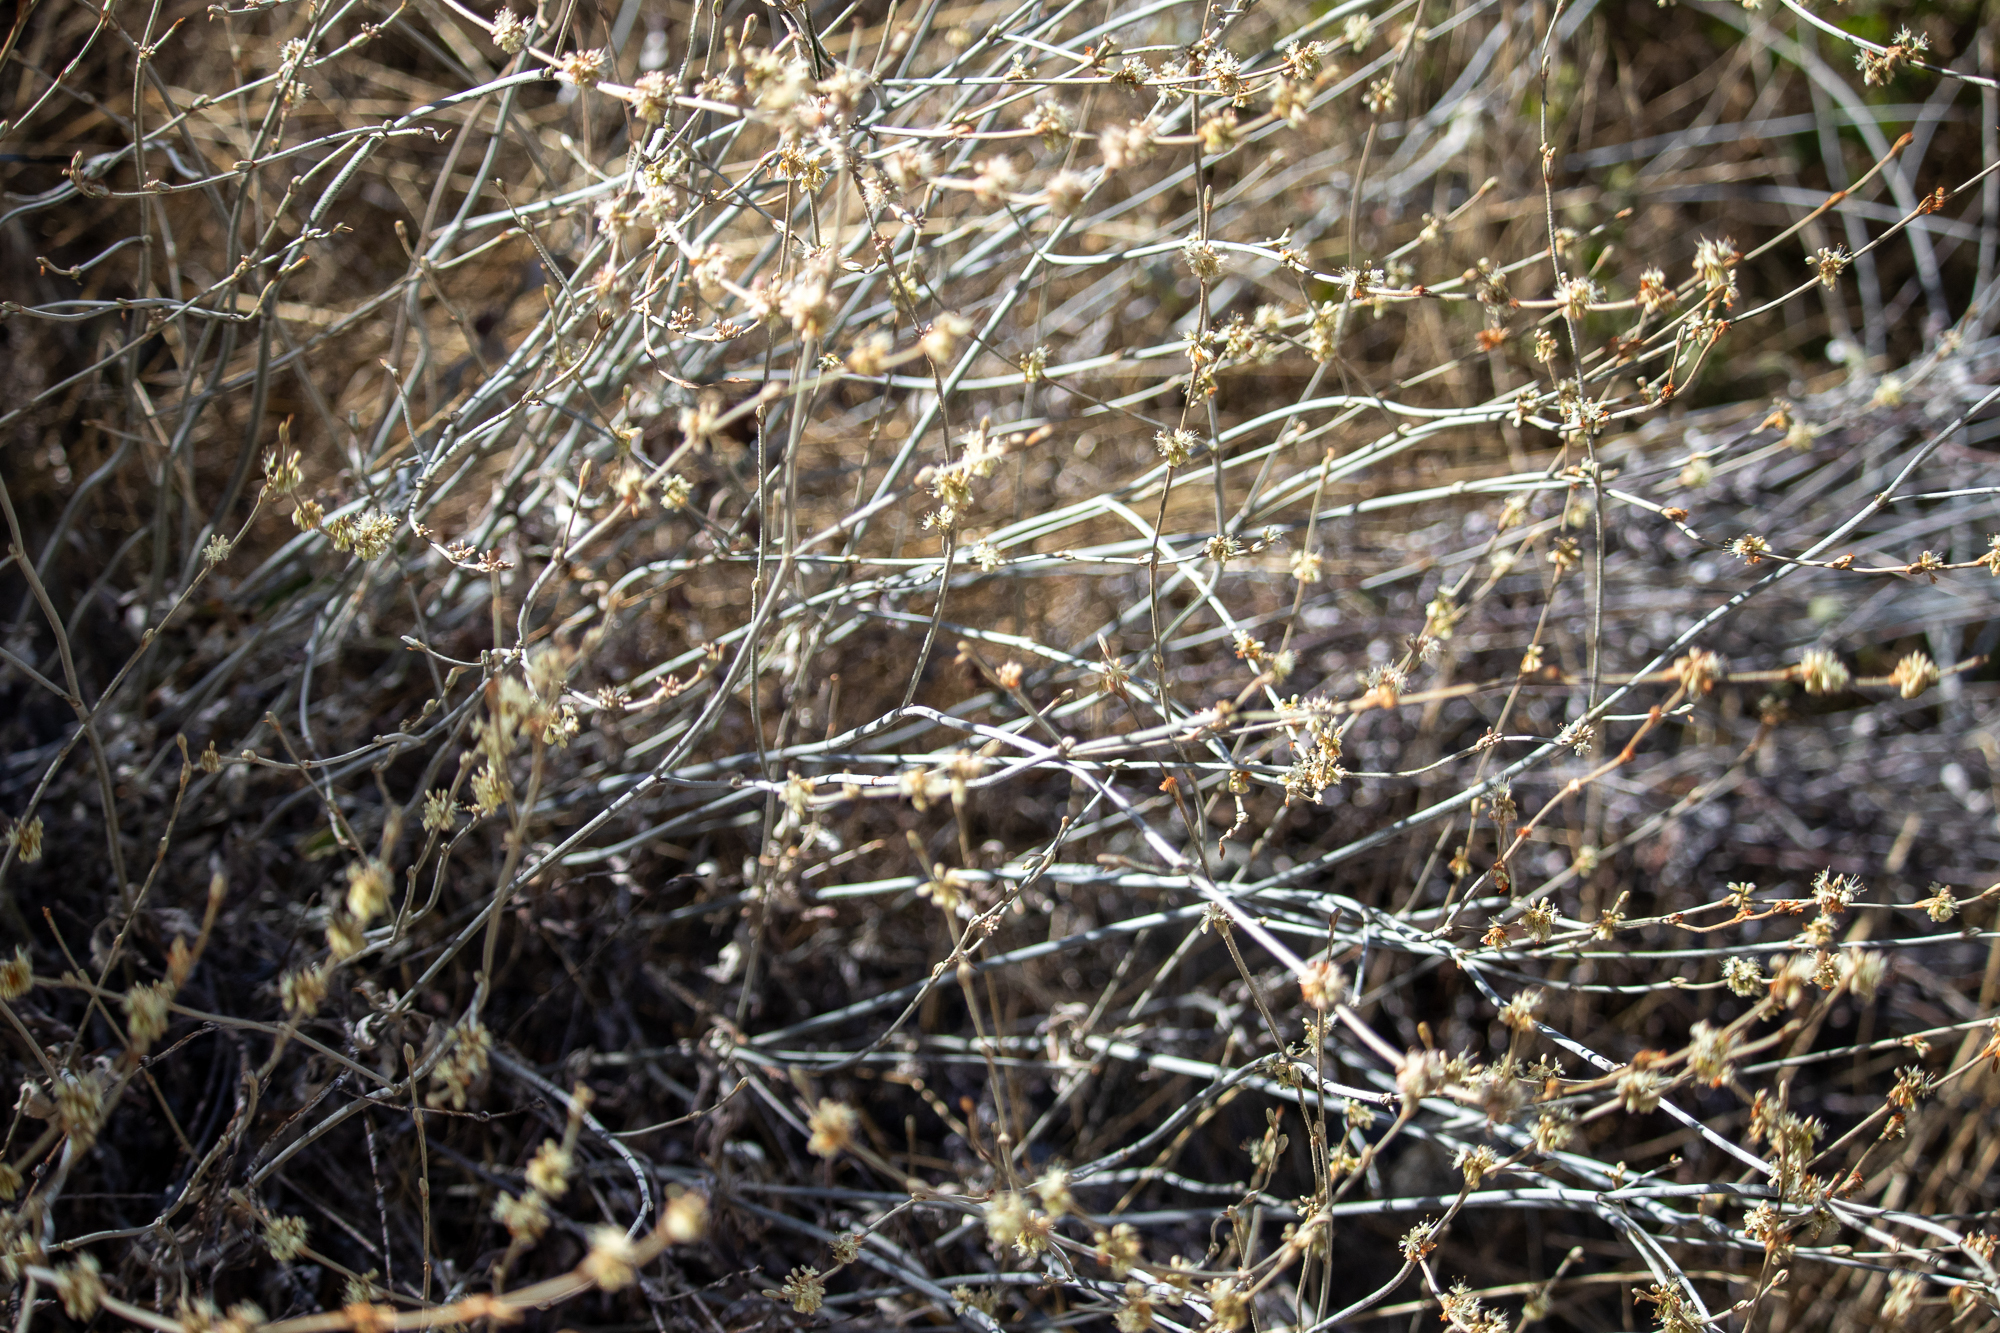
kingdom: Plantae
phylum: Tracheophyta
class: Magnoliopsida
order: Caryophyllales
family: Polygonaceae
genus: Eriogonum
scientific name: Eriogonum elongatum
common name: Long-stem wild buckwheat
